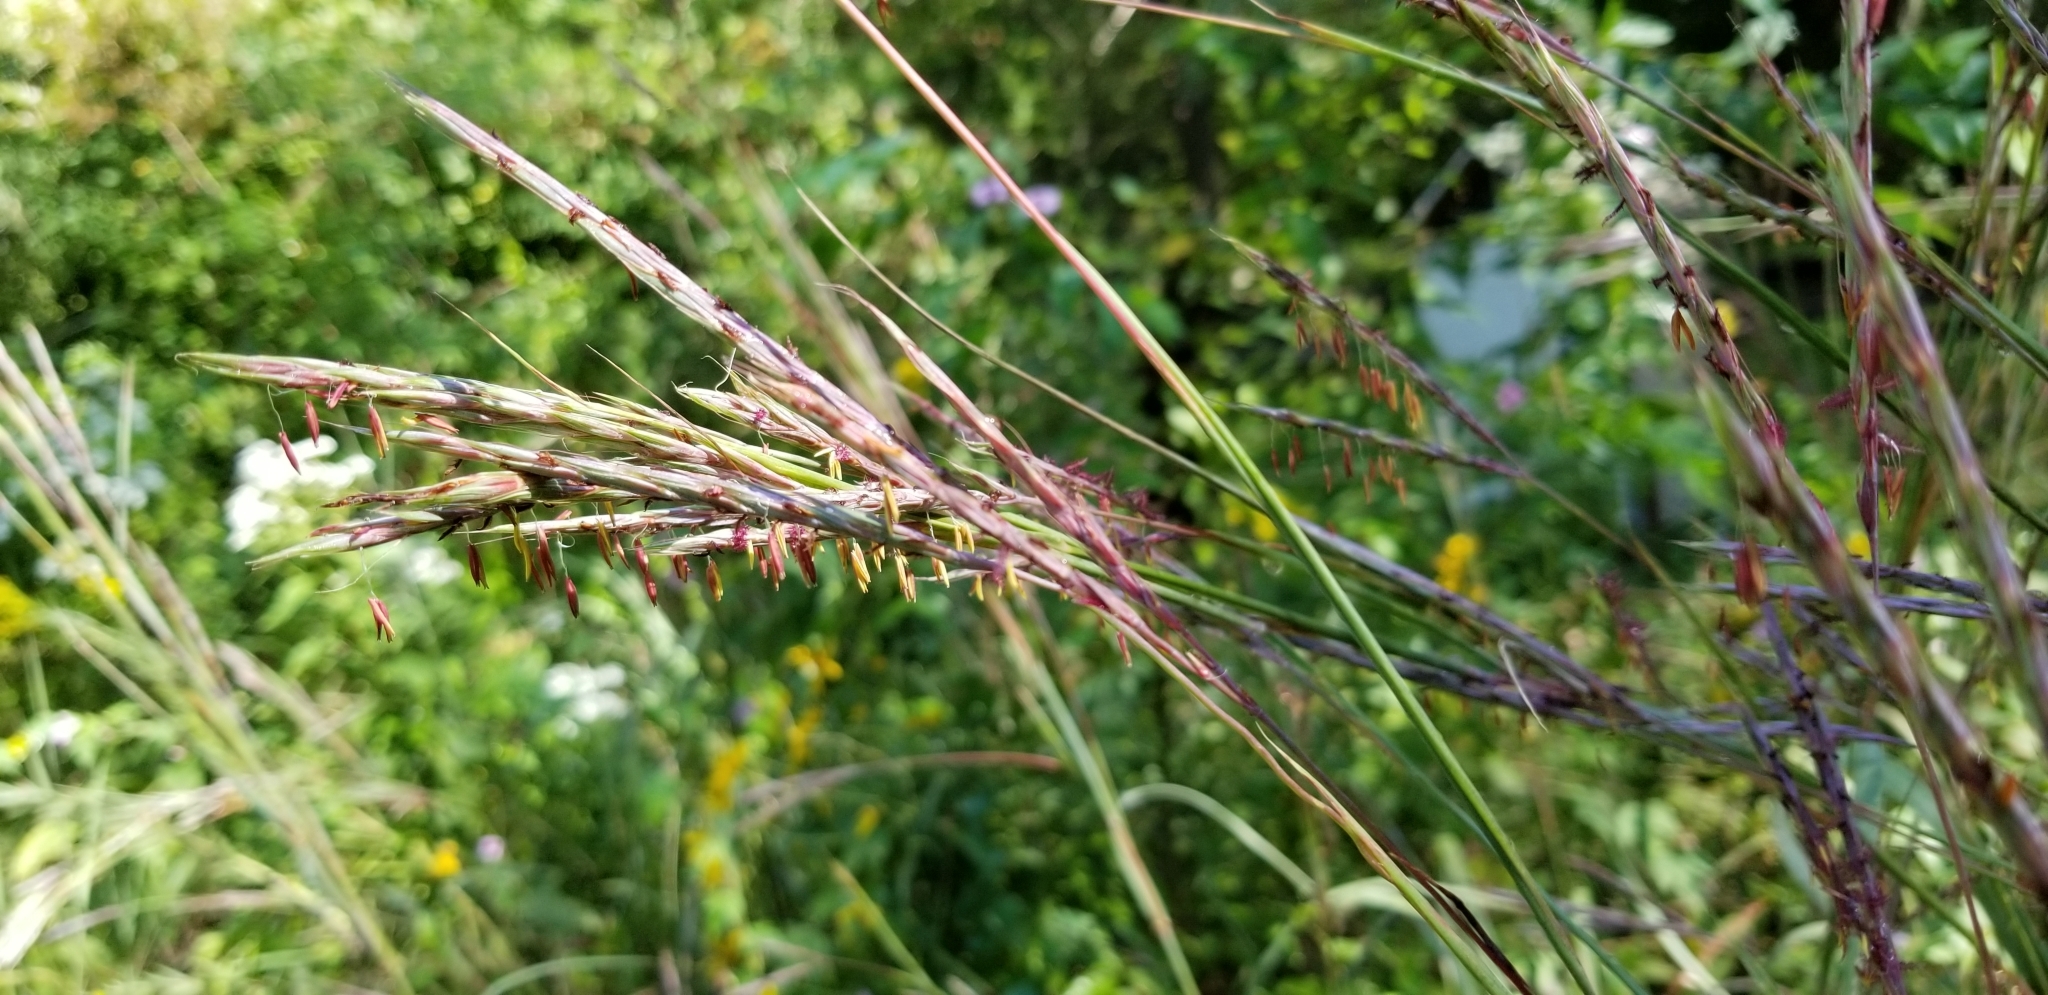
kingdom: Plantae
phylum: Tracheophyta
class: Liliopsida
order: Poales
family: Poaceae
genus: Andropogon
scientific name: Andropogon gerardi
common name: Big bluestem
